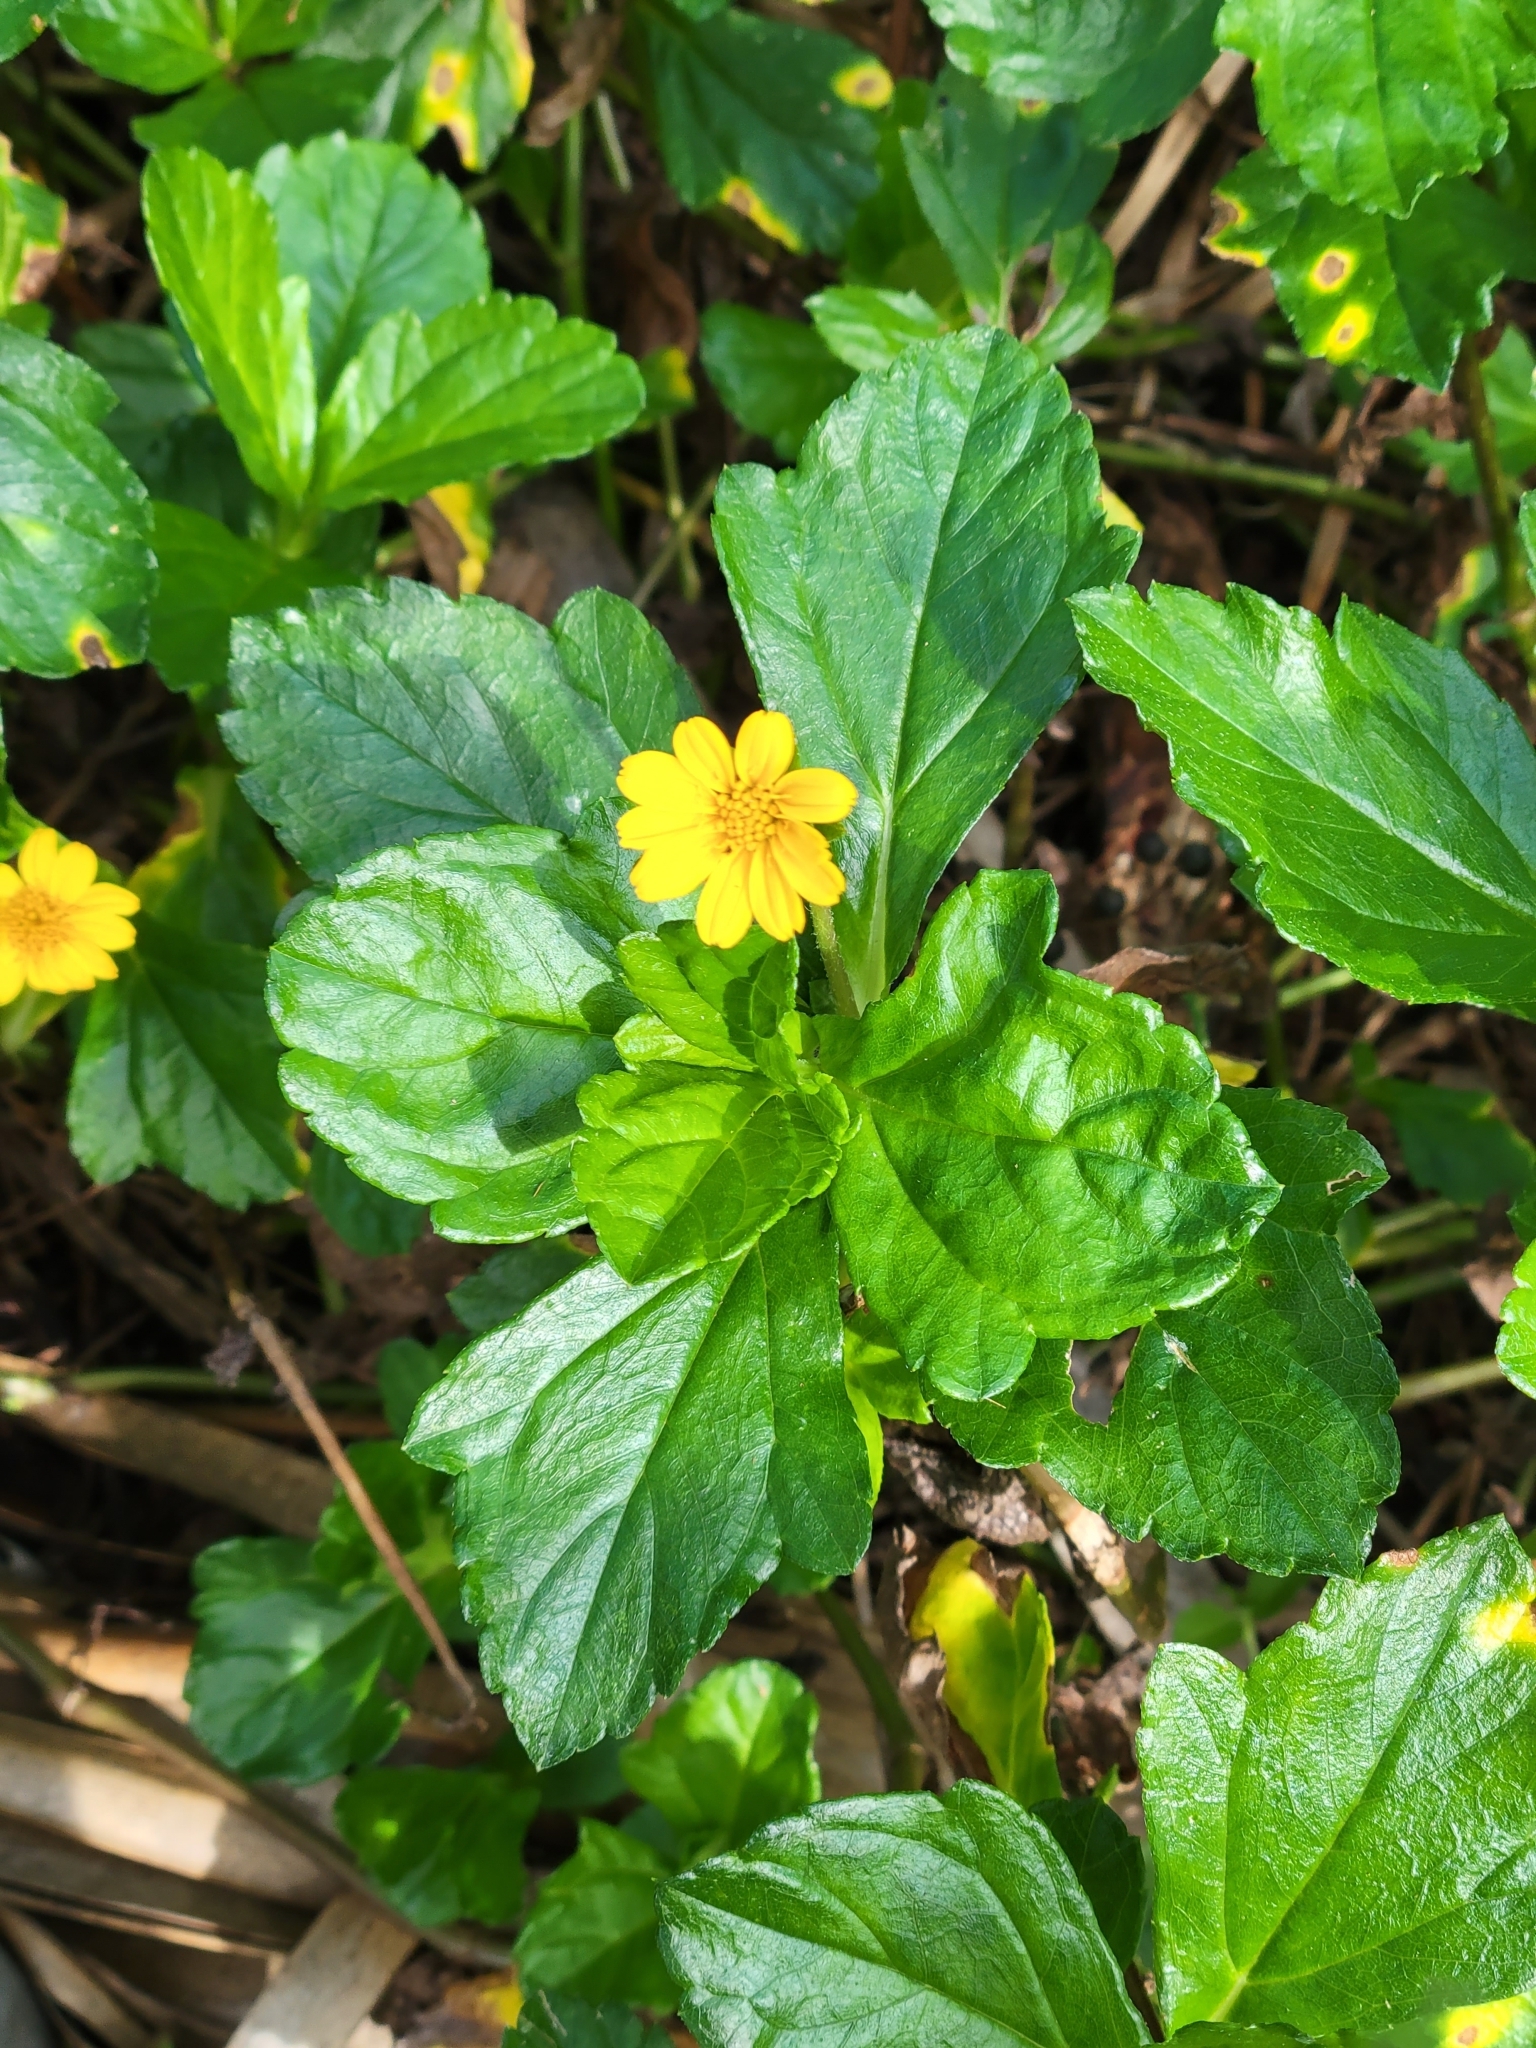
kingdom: Plantae
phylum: Tracheophyta
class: Magnoliopsida
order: Asterales
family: Asteraceae
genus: Sphagneticola
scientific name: Sphagneticola trilobata
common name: Bay biscayne creeping-oxeye
